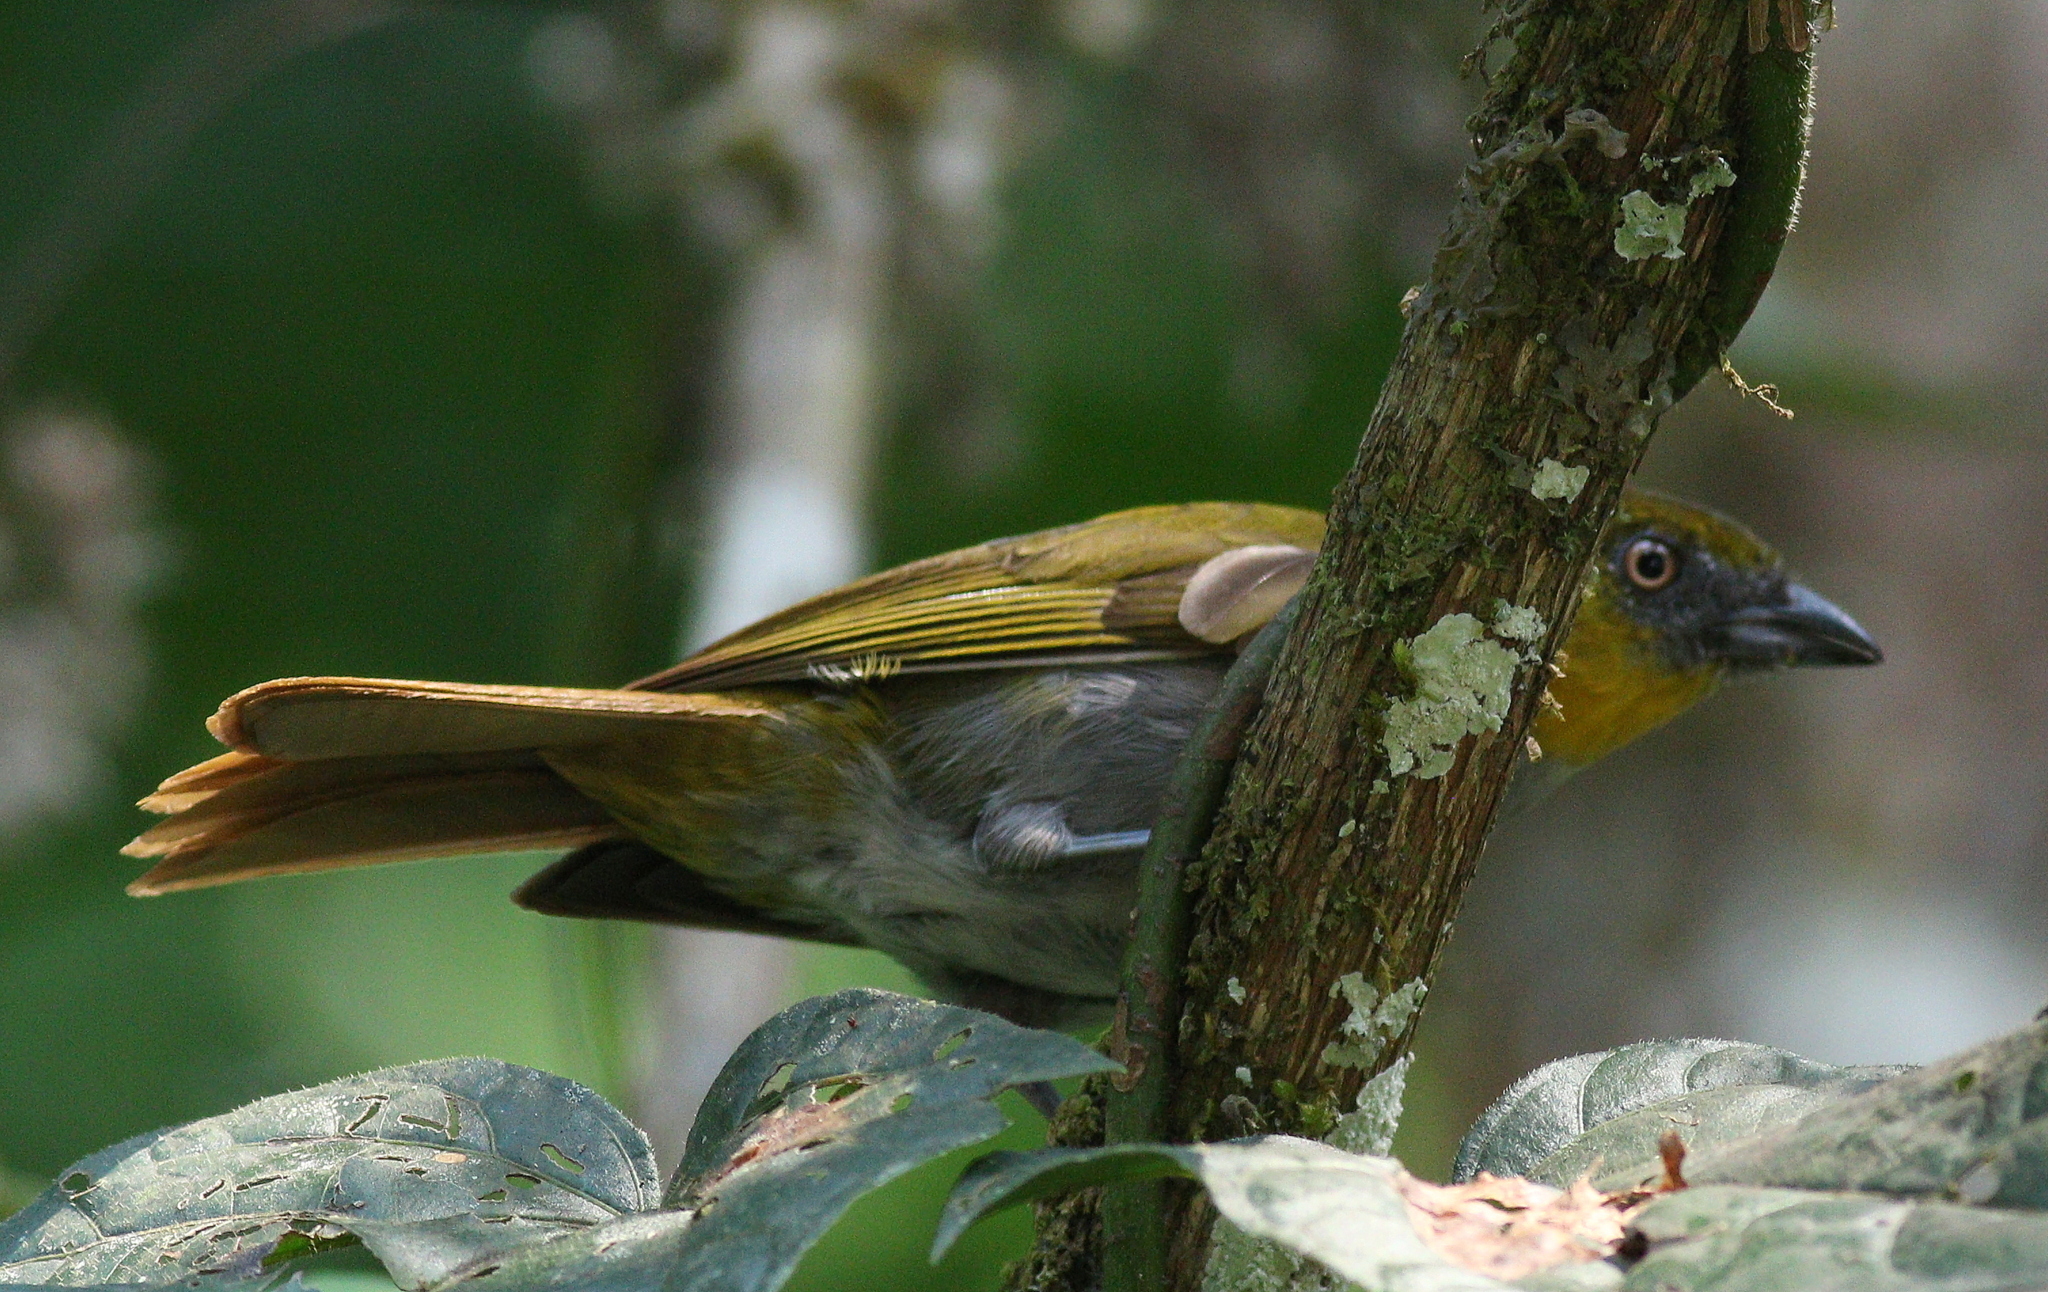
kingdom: Animalia
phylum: Chordata
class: Aves
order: Passeriformes
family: Passerellidae
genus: Chlorospingus
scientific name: Chlorospingus flavigularis
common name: Yellow-throated bush-tanager
